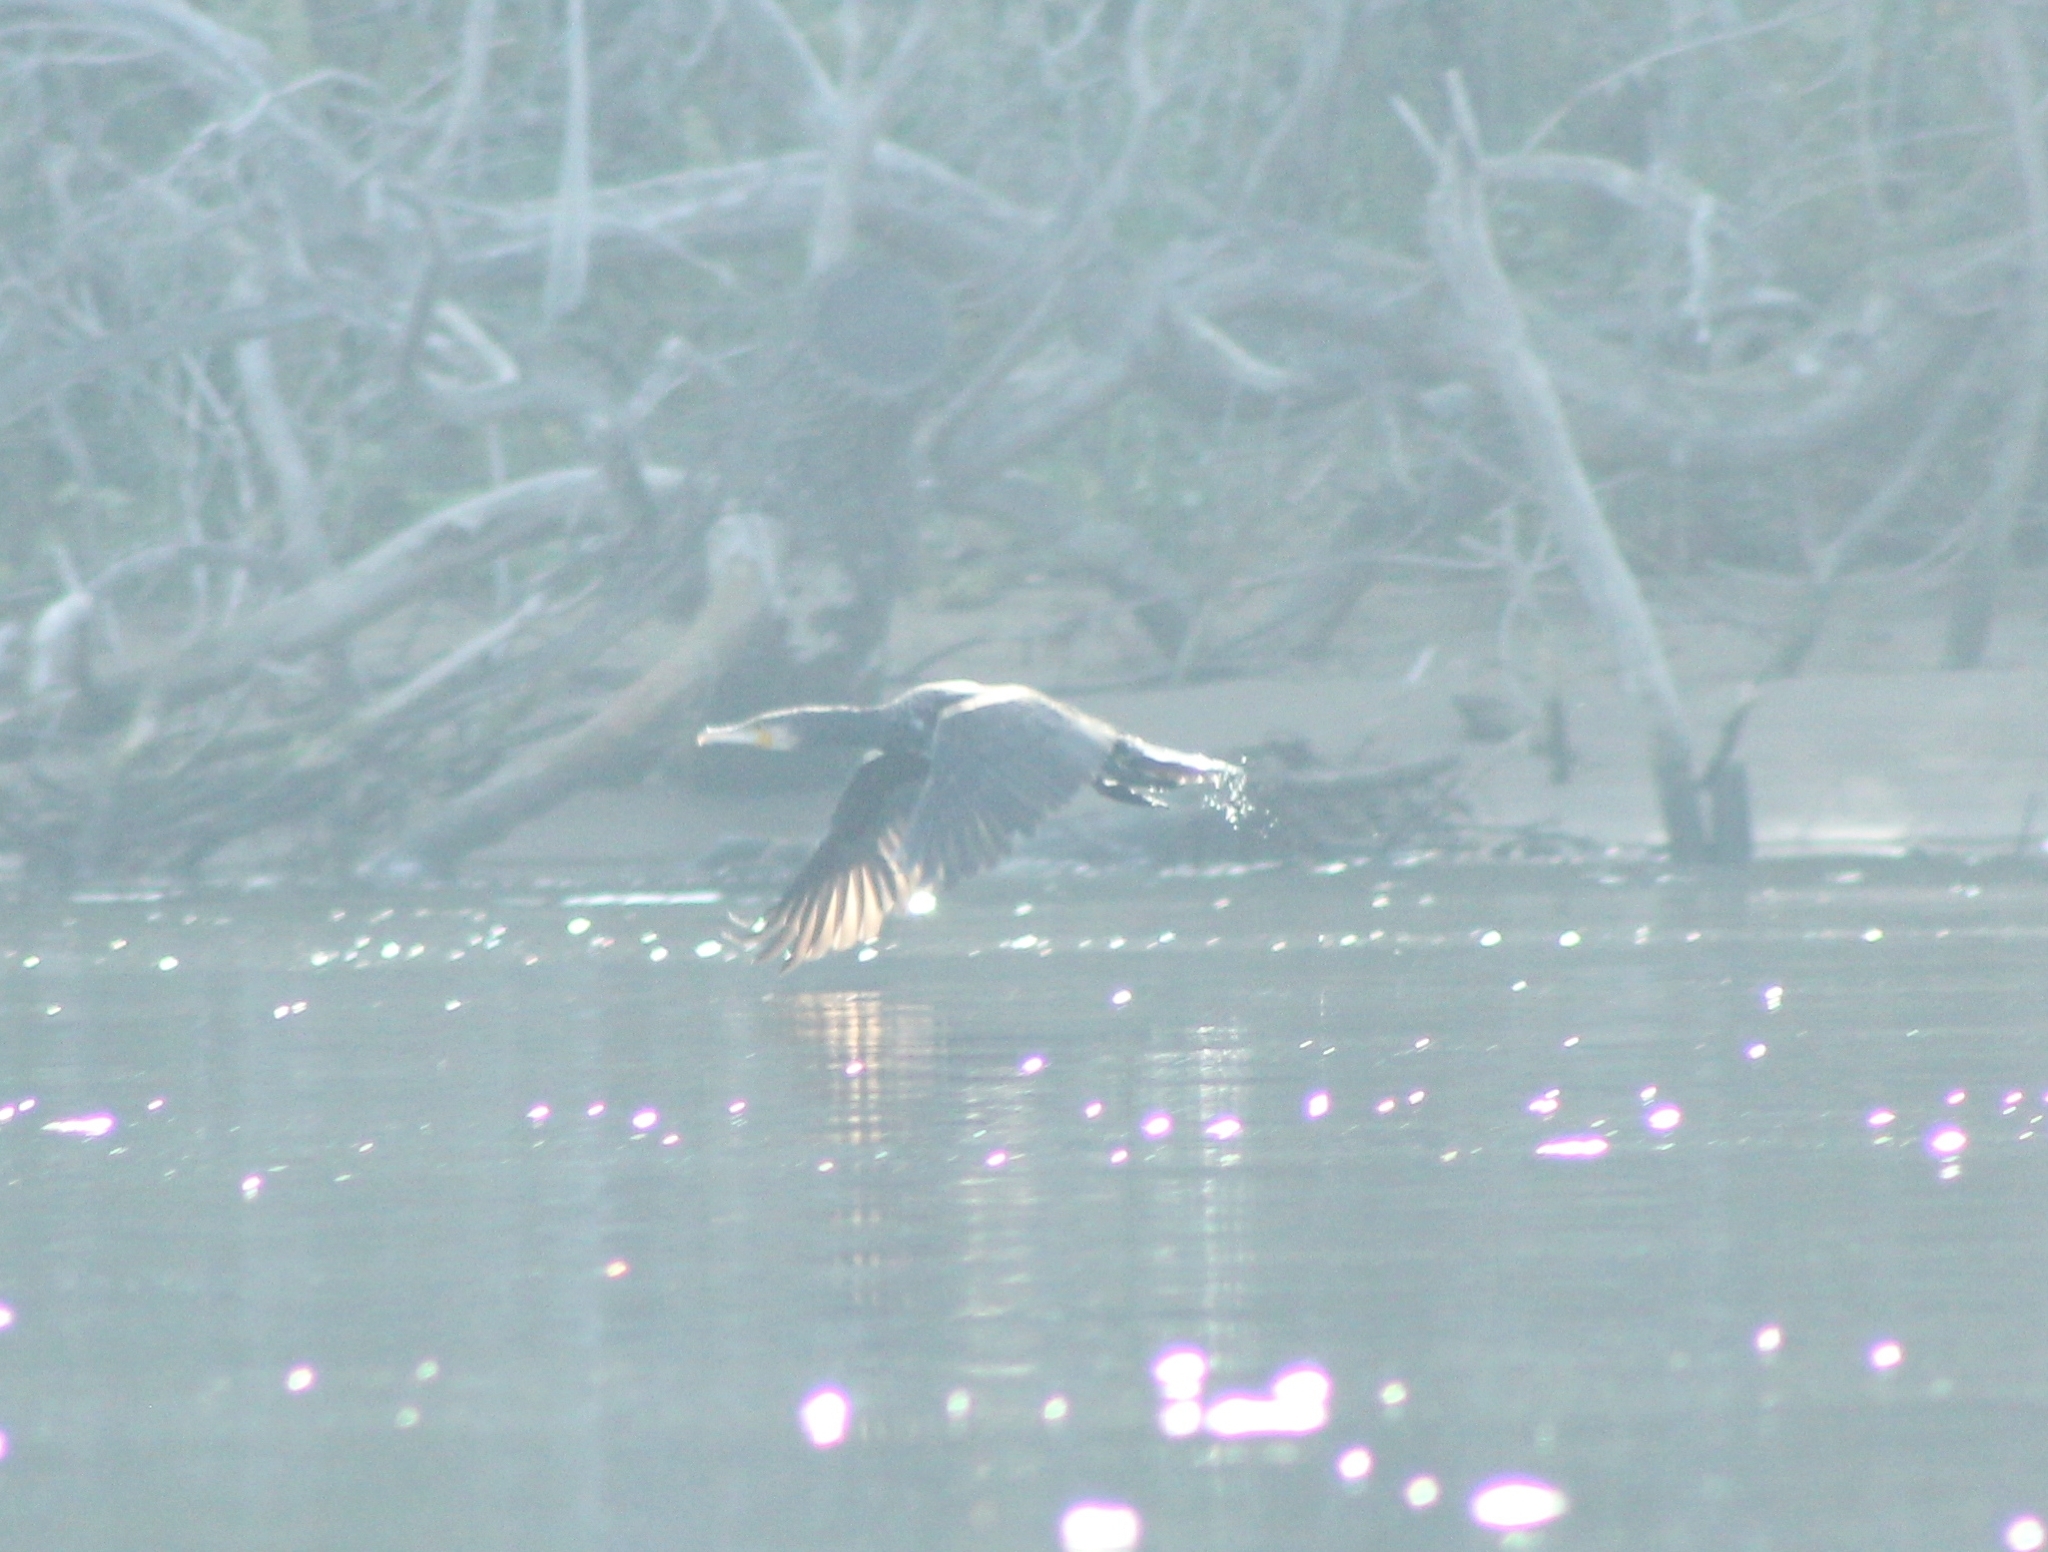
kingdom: Animalia
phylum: Chordata
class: Aves
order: Suliformes
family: Phalacrocoracidae
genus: Phalacrocorax
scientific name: Phalacrocorax carbo
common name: Great cormorant
